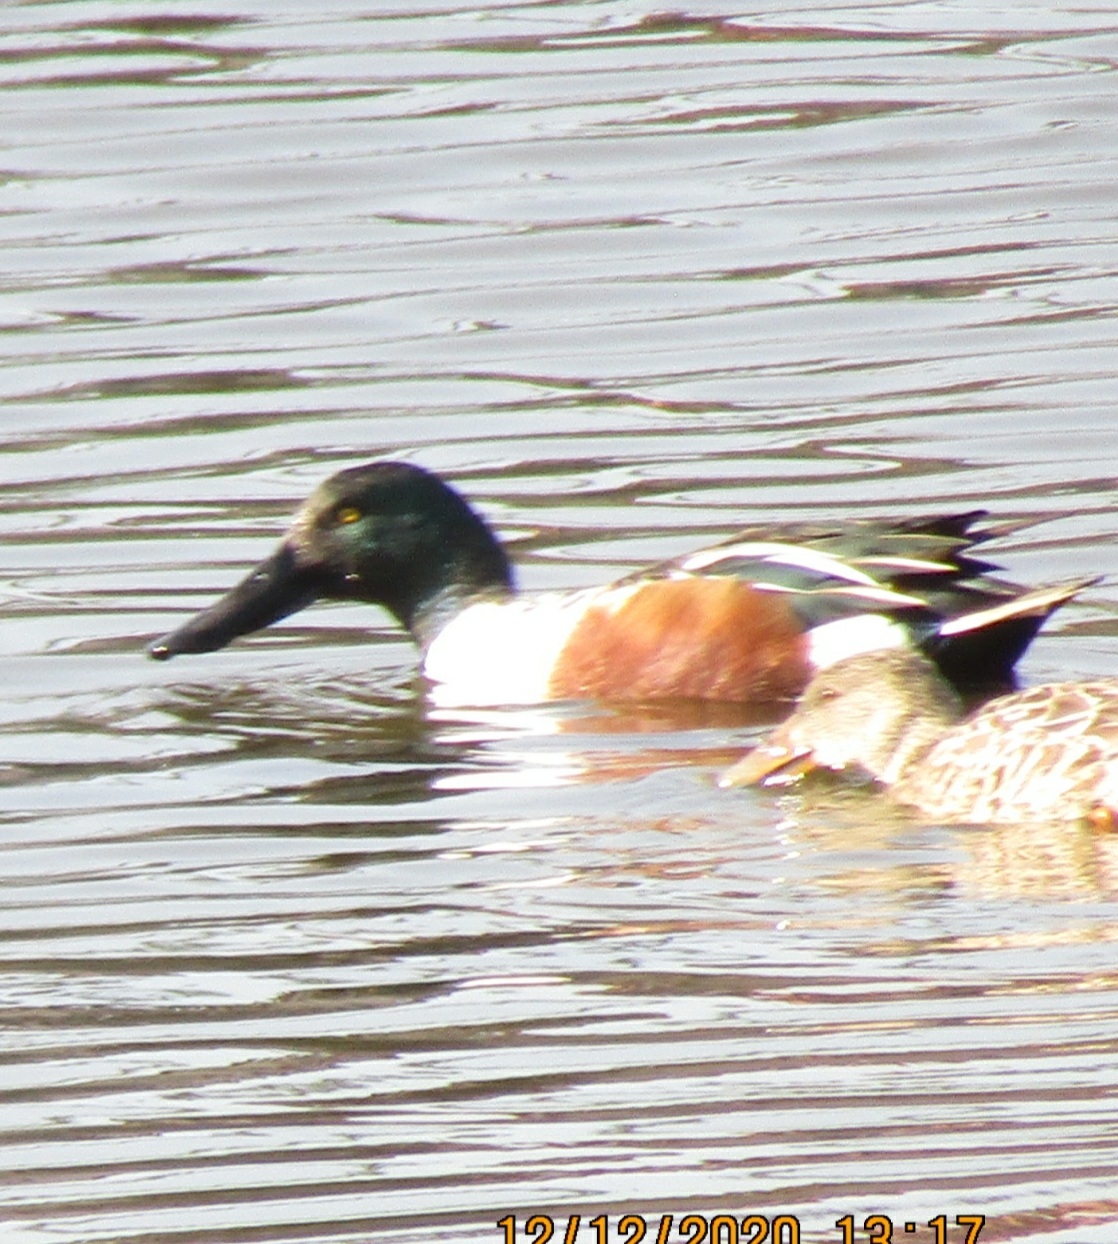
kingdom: Animalia
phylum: Chordata
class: Aves
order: Anseriformes
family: Anatidae
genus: Spatula
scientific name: Spatula clypeata
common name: Northern shoveler
